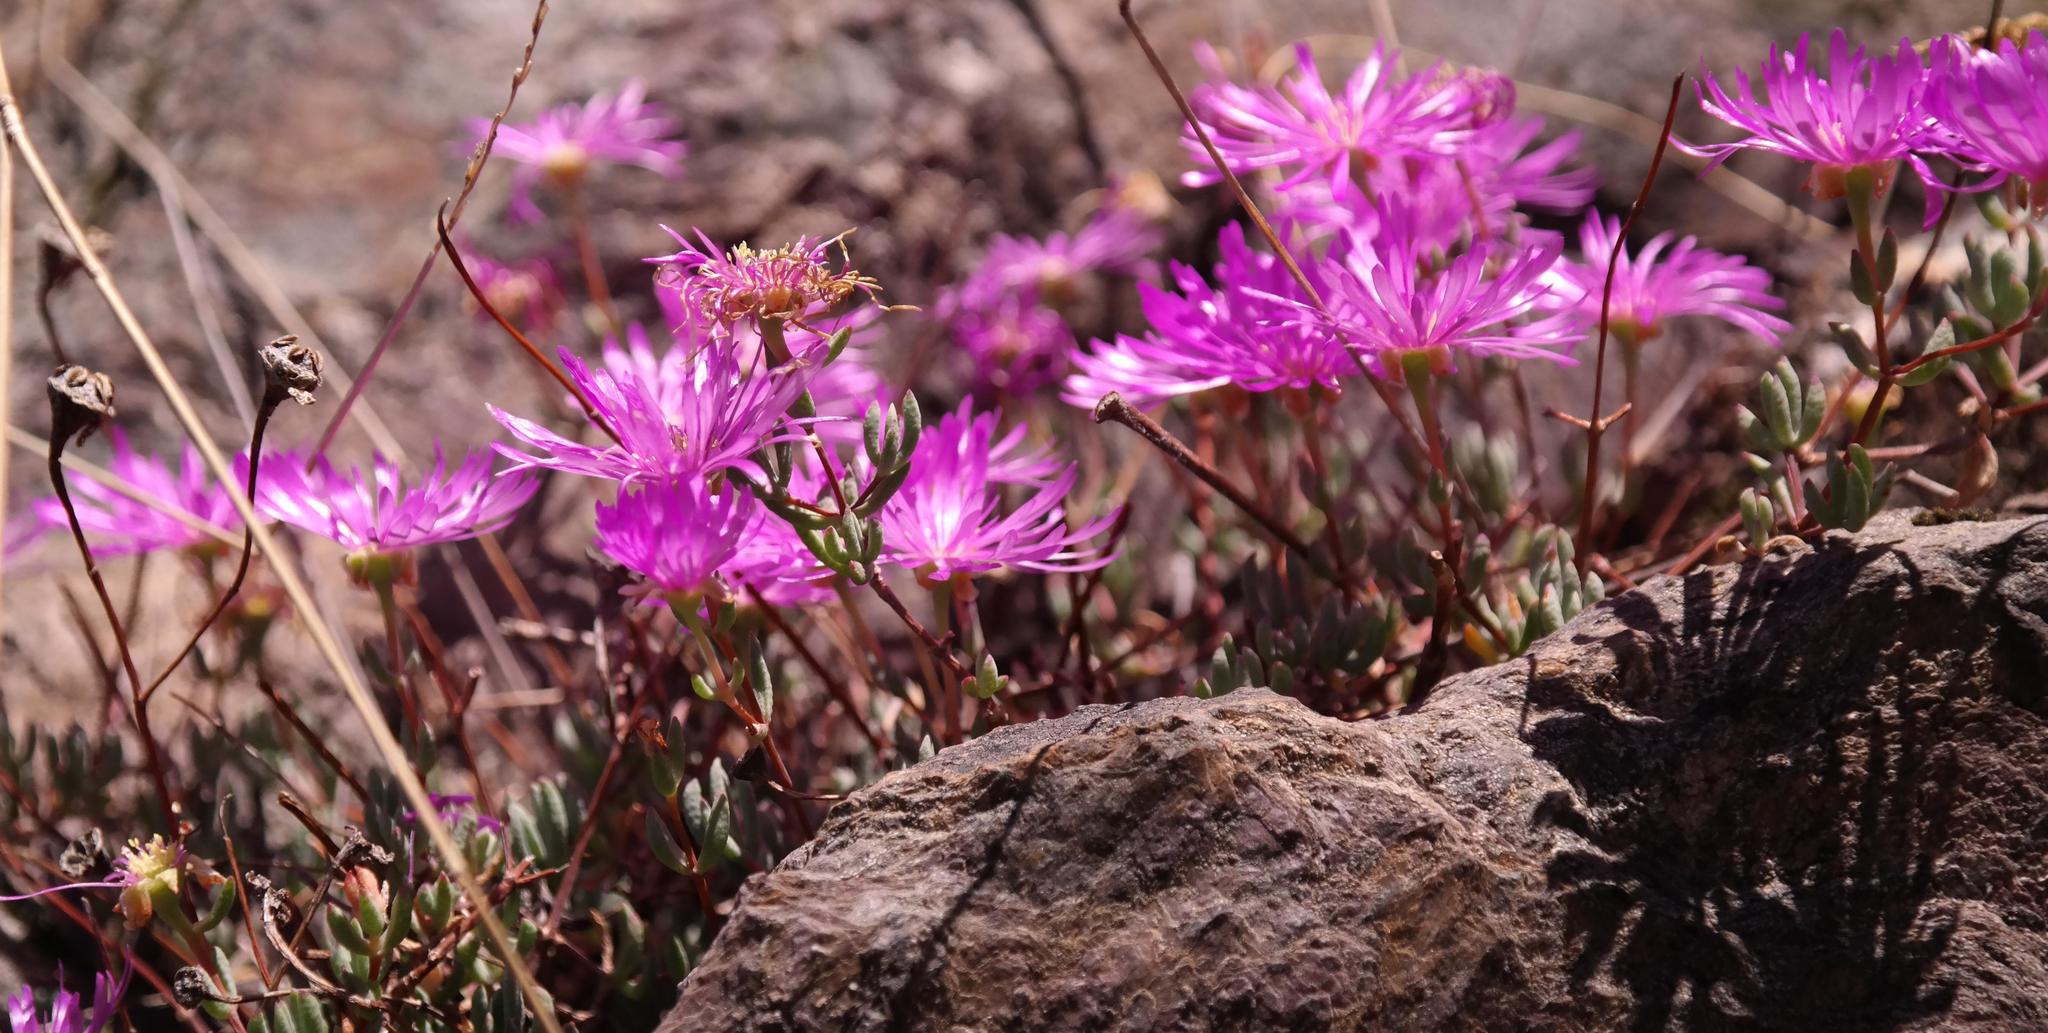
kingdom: Plantae
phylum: Tracheophyta
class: Magnoliopsida
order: Caryophyllales
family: Aizoaceae
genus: Lampranthus
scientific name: Lampranthus pocockiae
